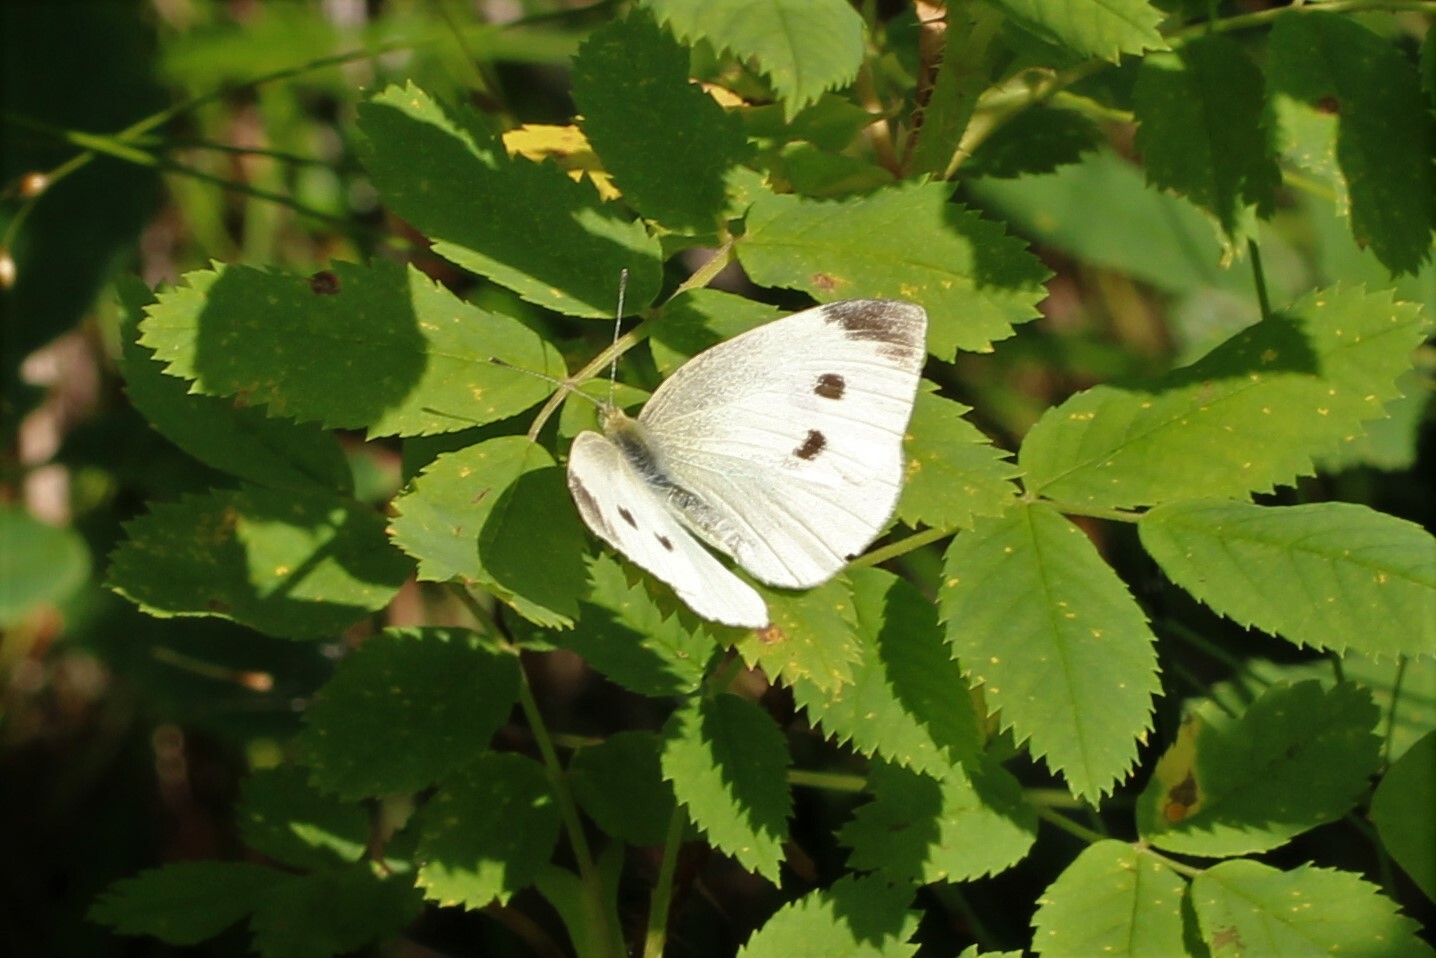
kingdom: Animalia
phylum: Arthropoda
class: Insecta
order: Lepidoptera
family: Pieridae
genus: Pieris
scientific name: Pieris rapae
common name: Small white
